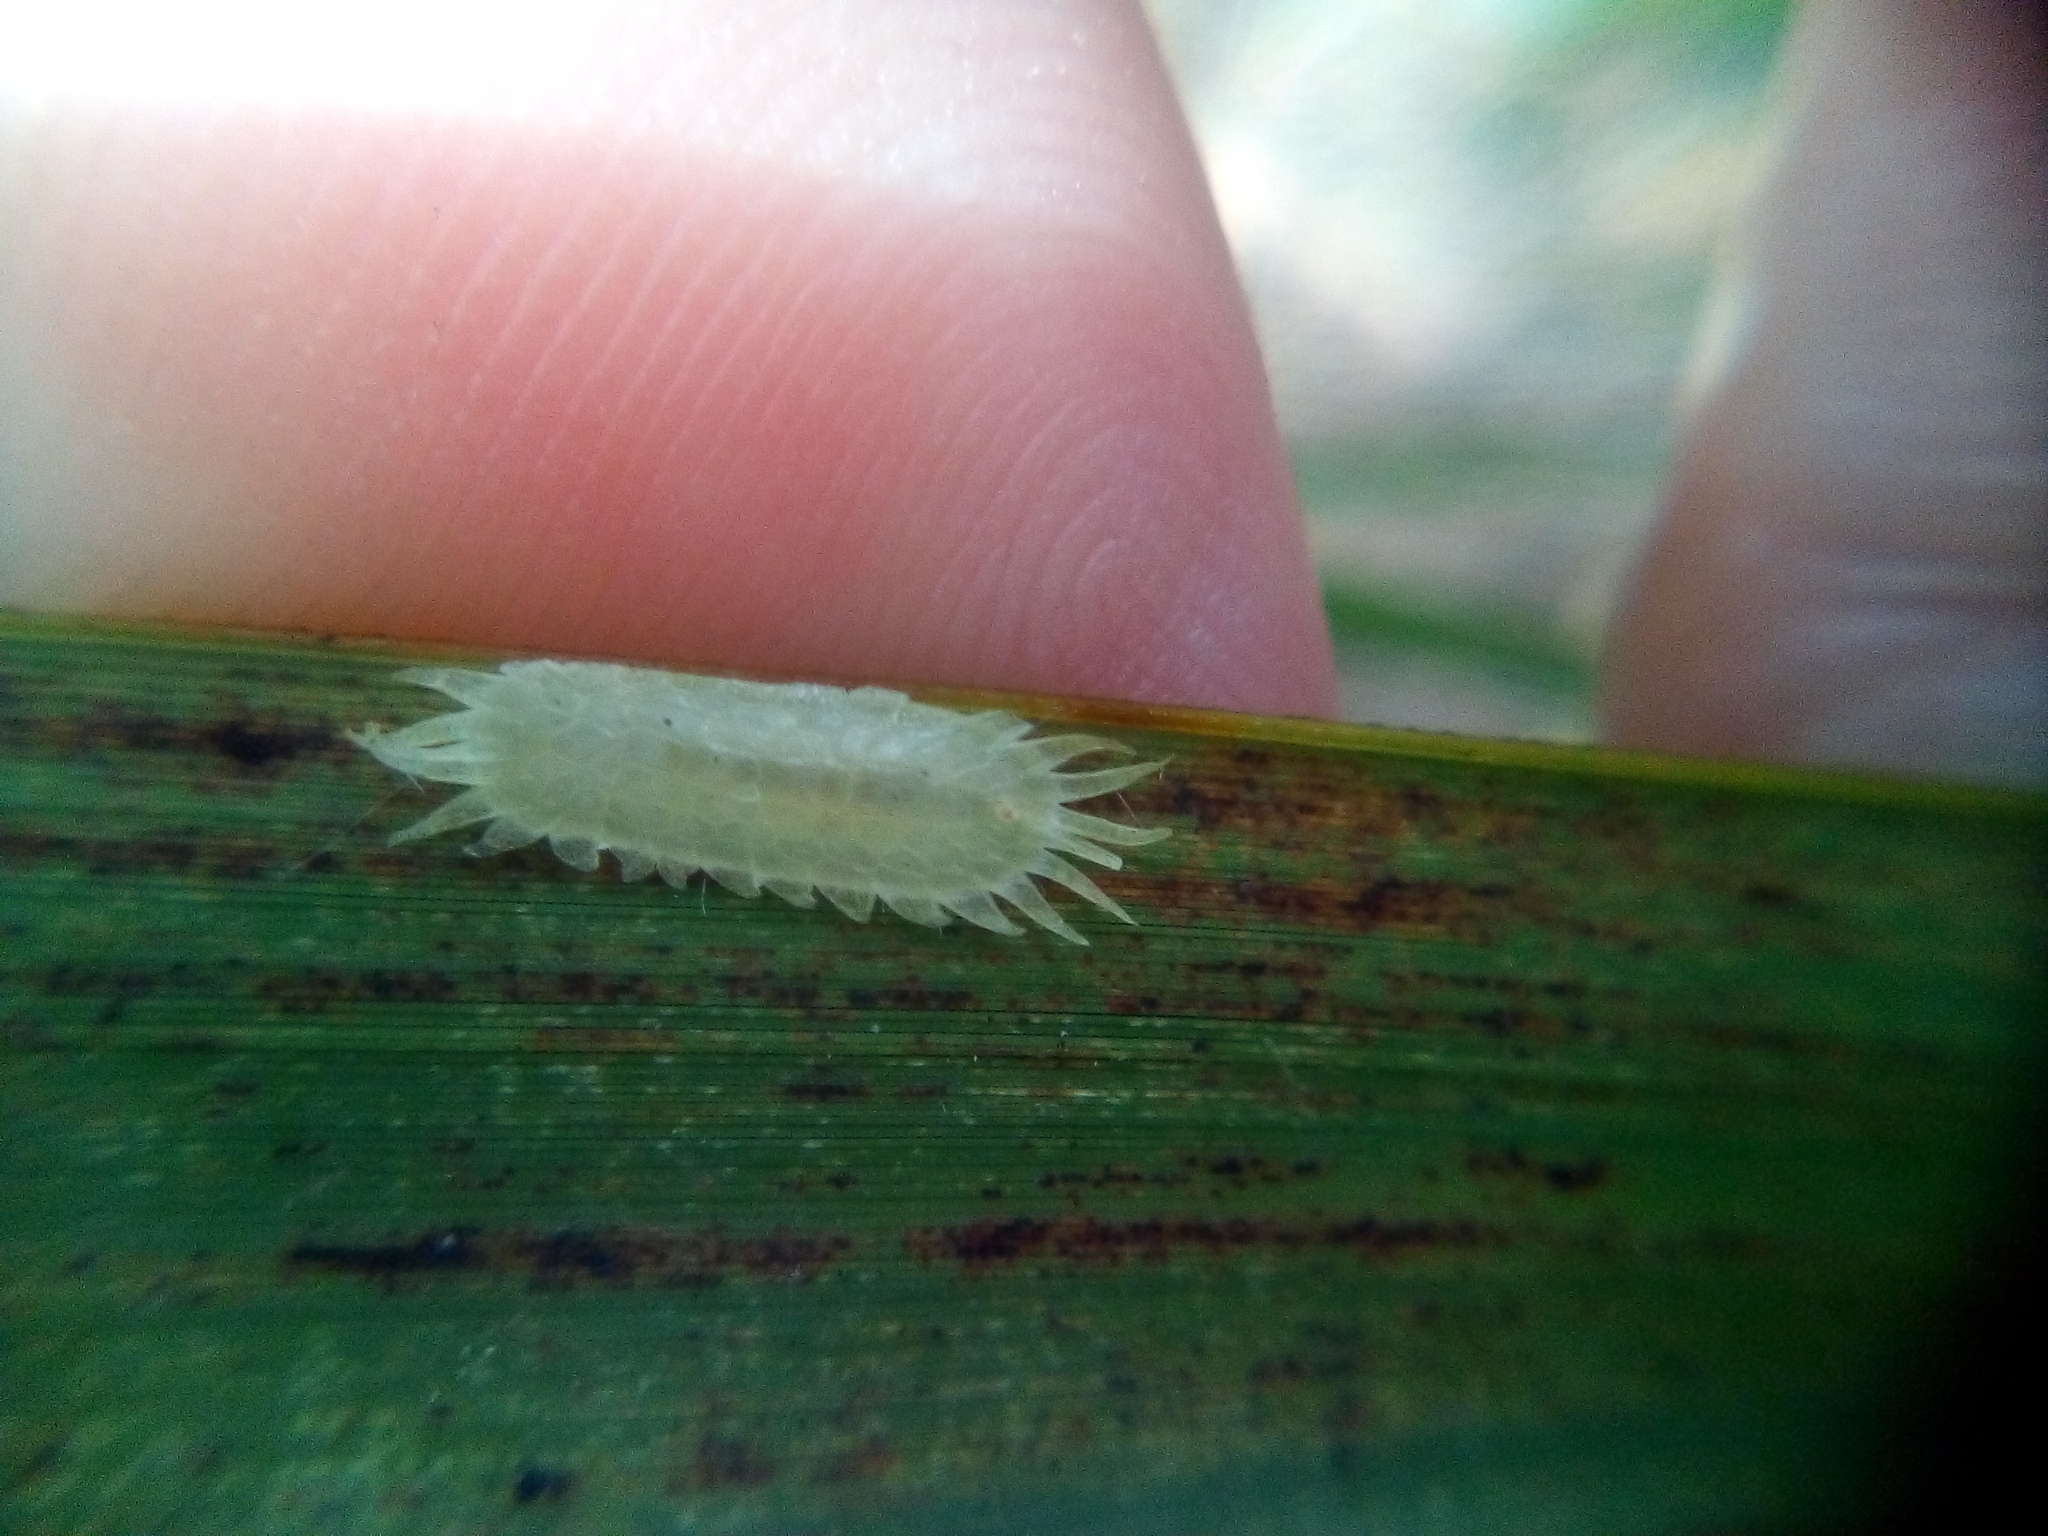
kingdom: Animalia
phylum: Arthropoda
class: Insecta
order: Hemiptera
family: Coccidae
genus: Kalasiris
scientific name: Kalasiris martini
